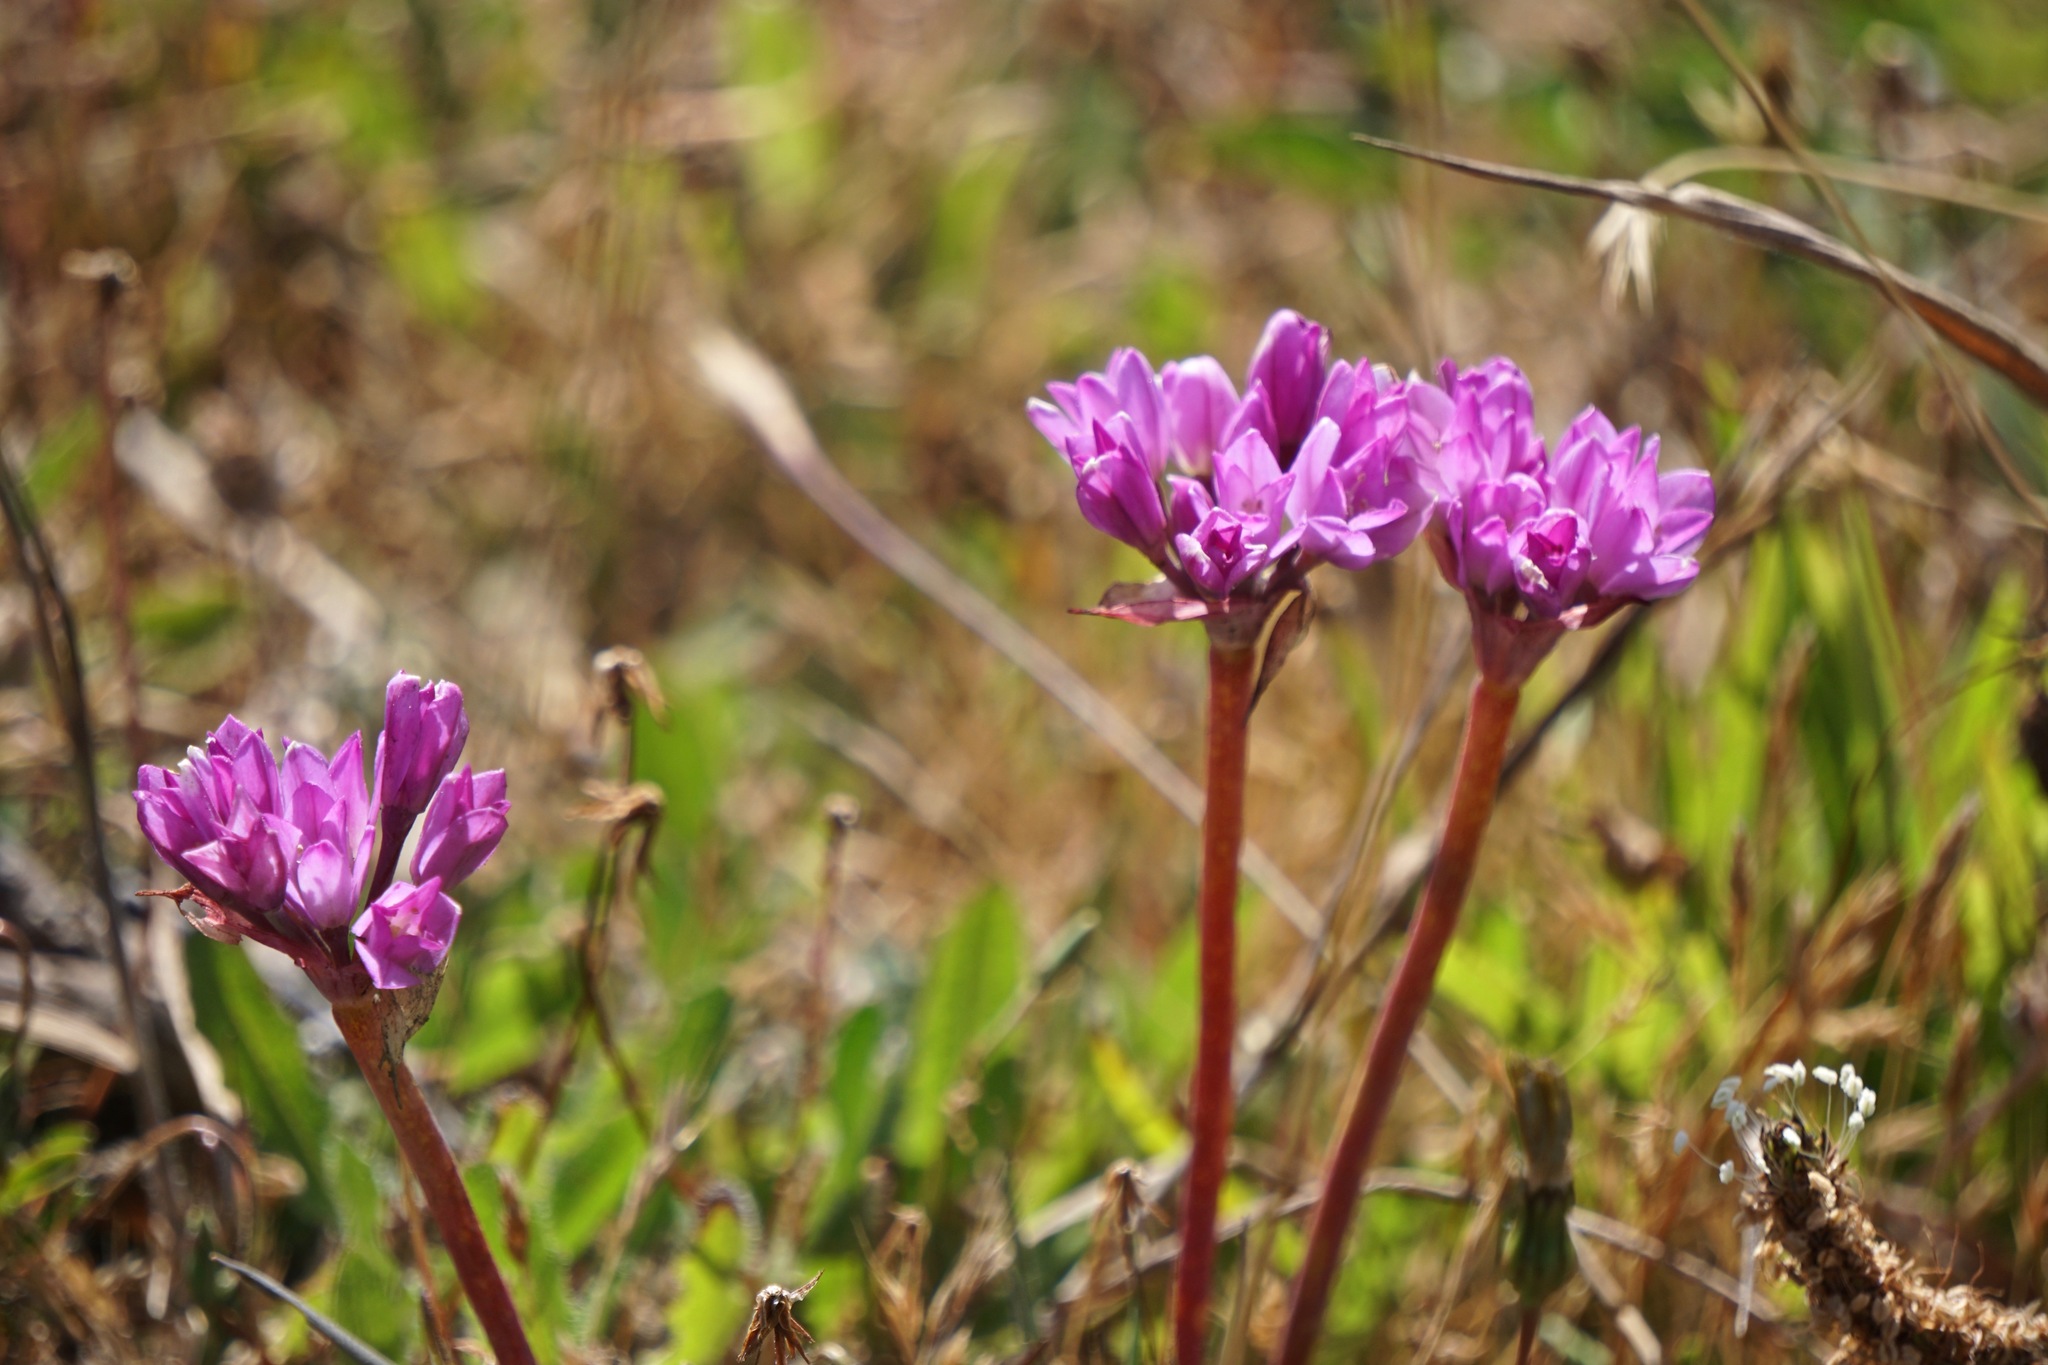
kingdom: Plantae
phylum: Tracheophyta
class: Liliopsida
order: Asparagales
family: Amaryllidaceae
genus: Allium
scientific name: Allium dichlamydeum
